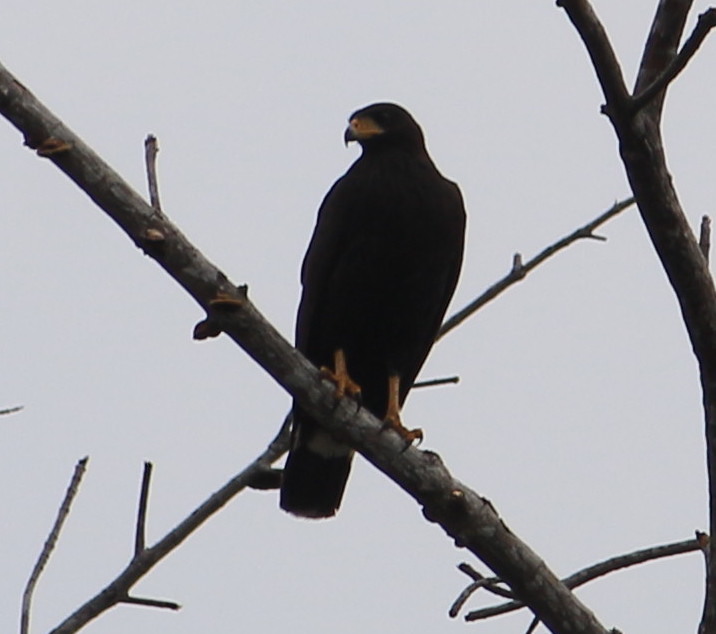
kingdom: Animalia
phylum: Chordata
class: Aves
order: Accipitriformes
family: Accipitridae
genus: Buteogallus
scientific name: Buteogallus anthracinus
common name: Common black hawk
